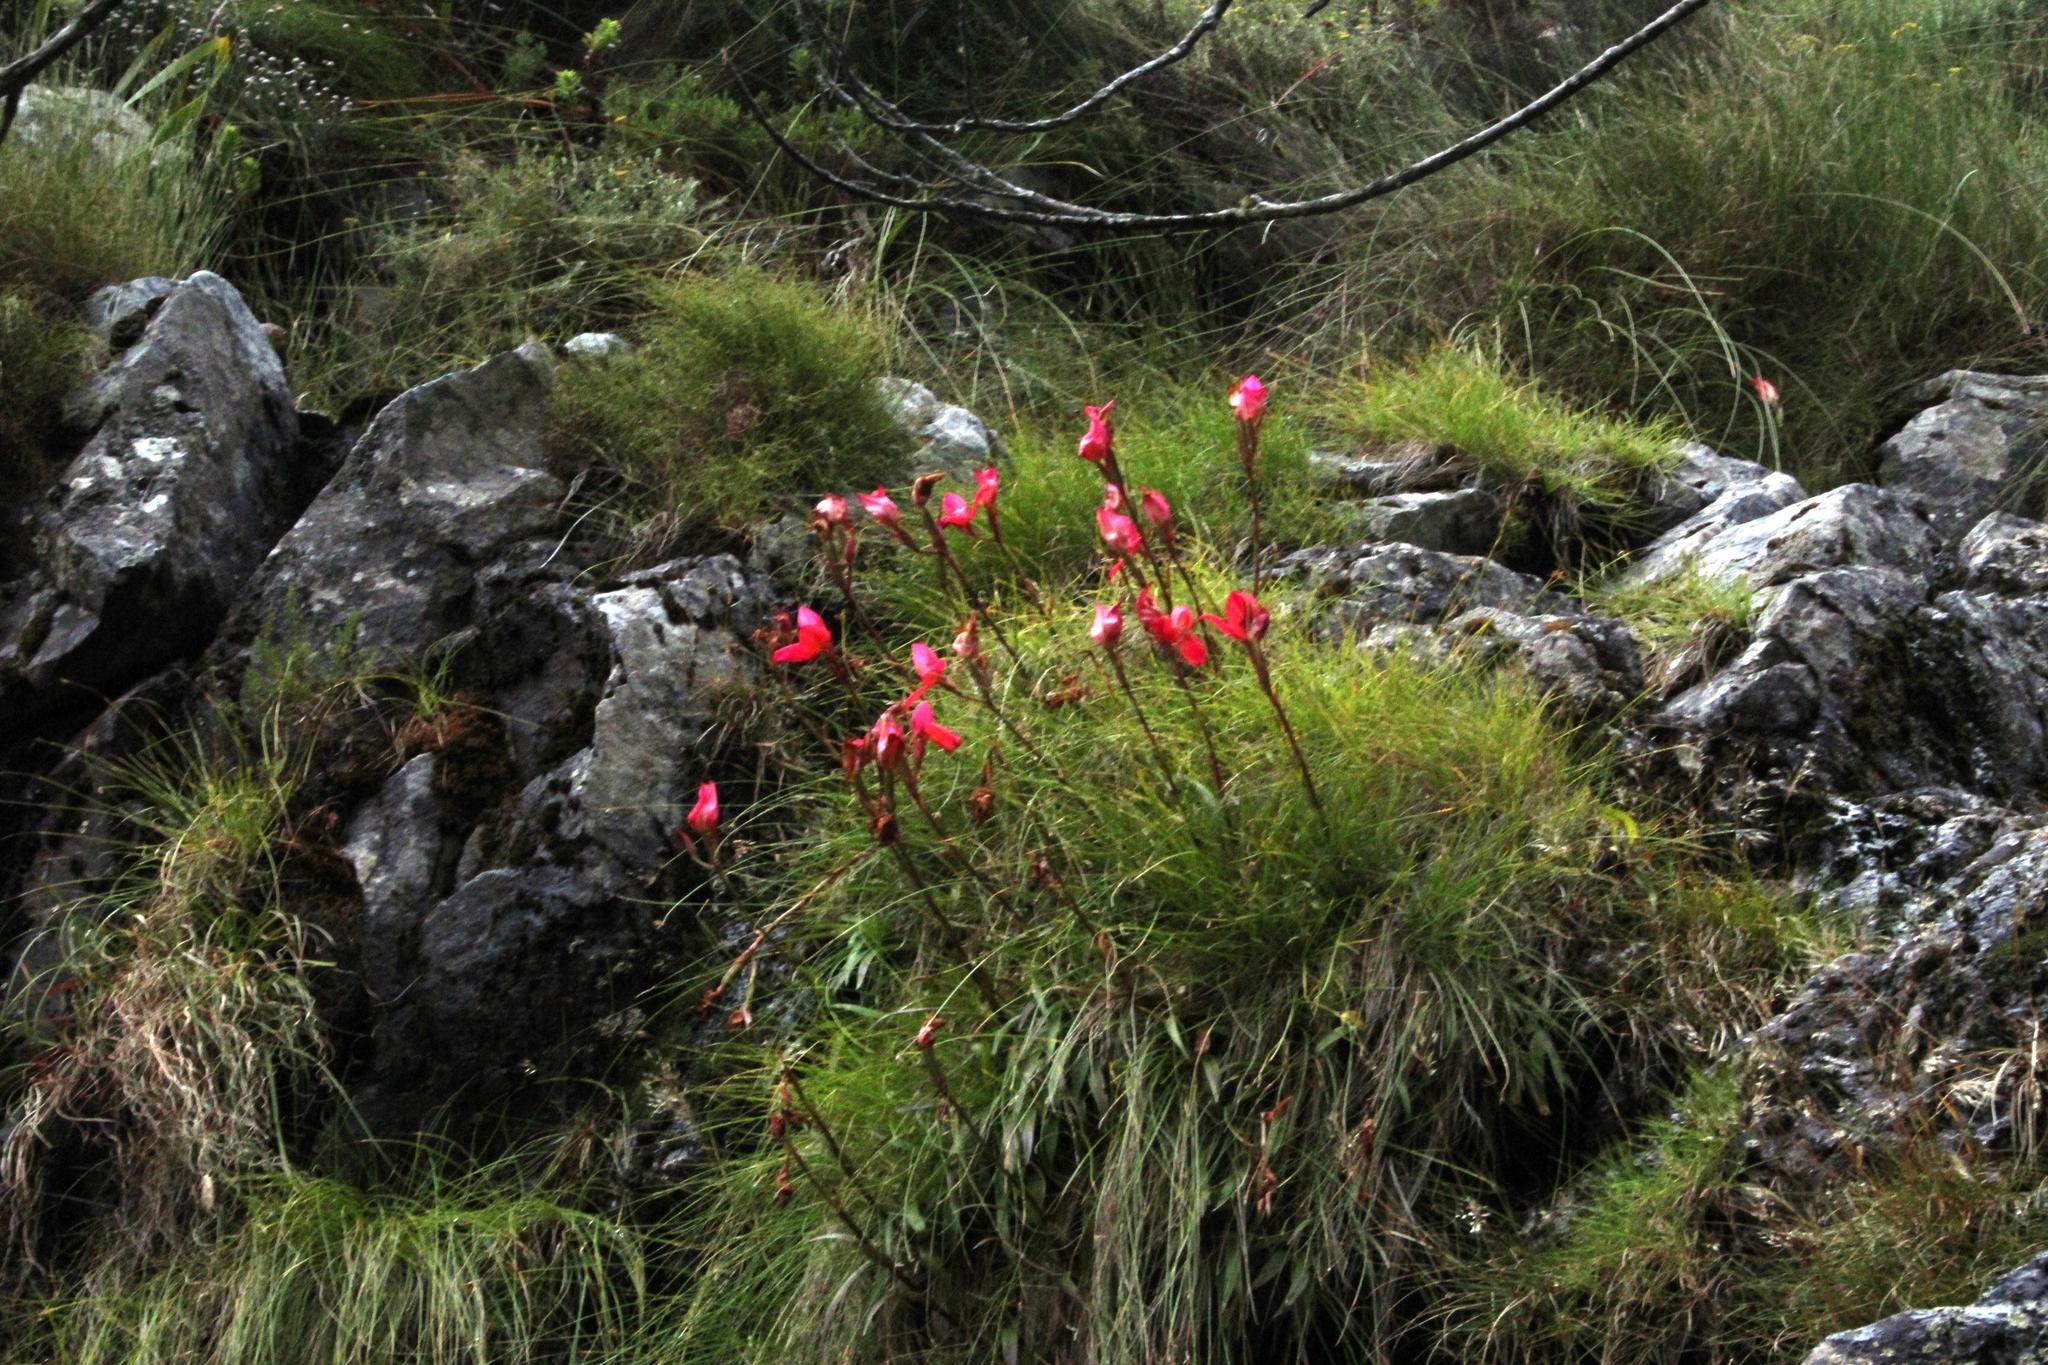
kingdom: Plantae
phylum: Tracheophyta
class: Liliopsida
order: Asparagales
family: Orchidaceae
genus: Disa
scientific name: Disa uniflora
